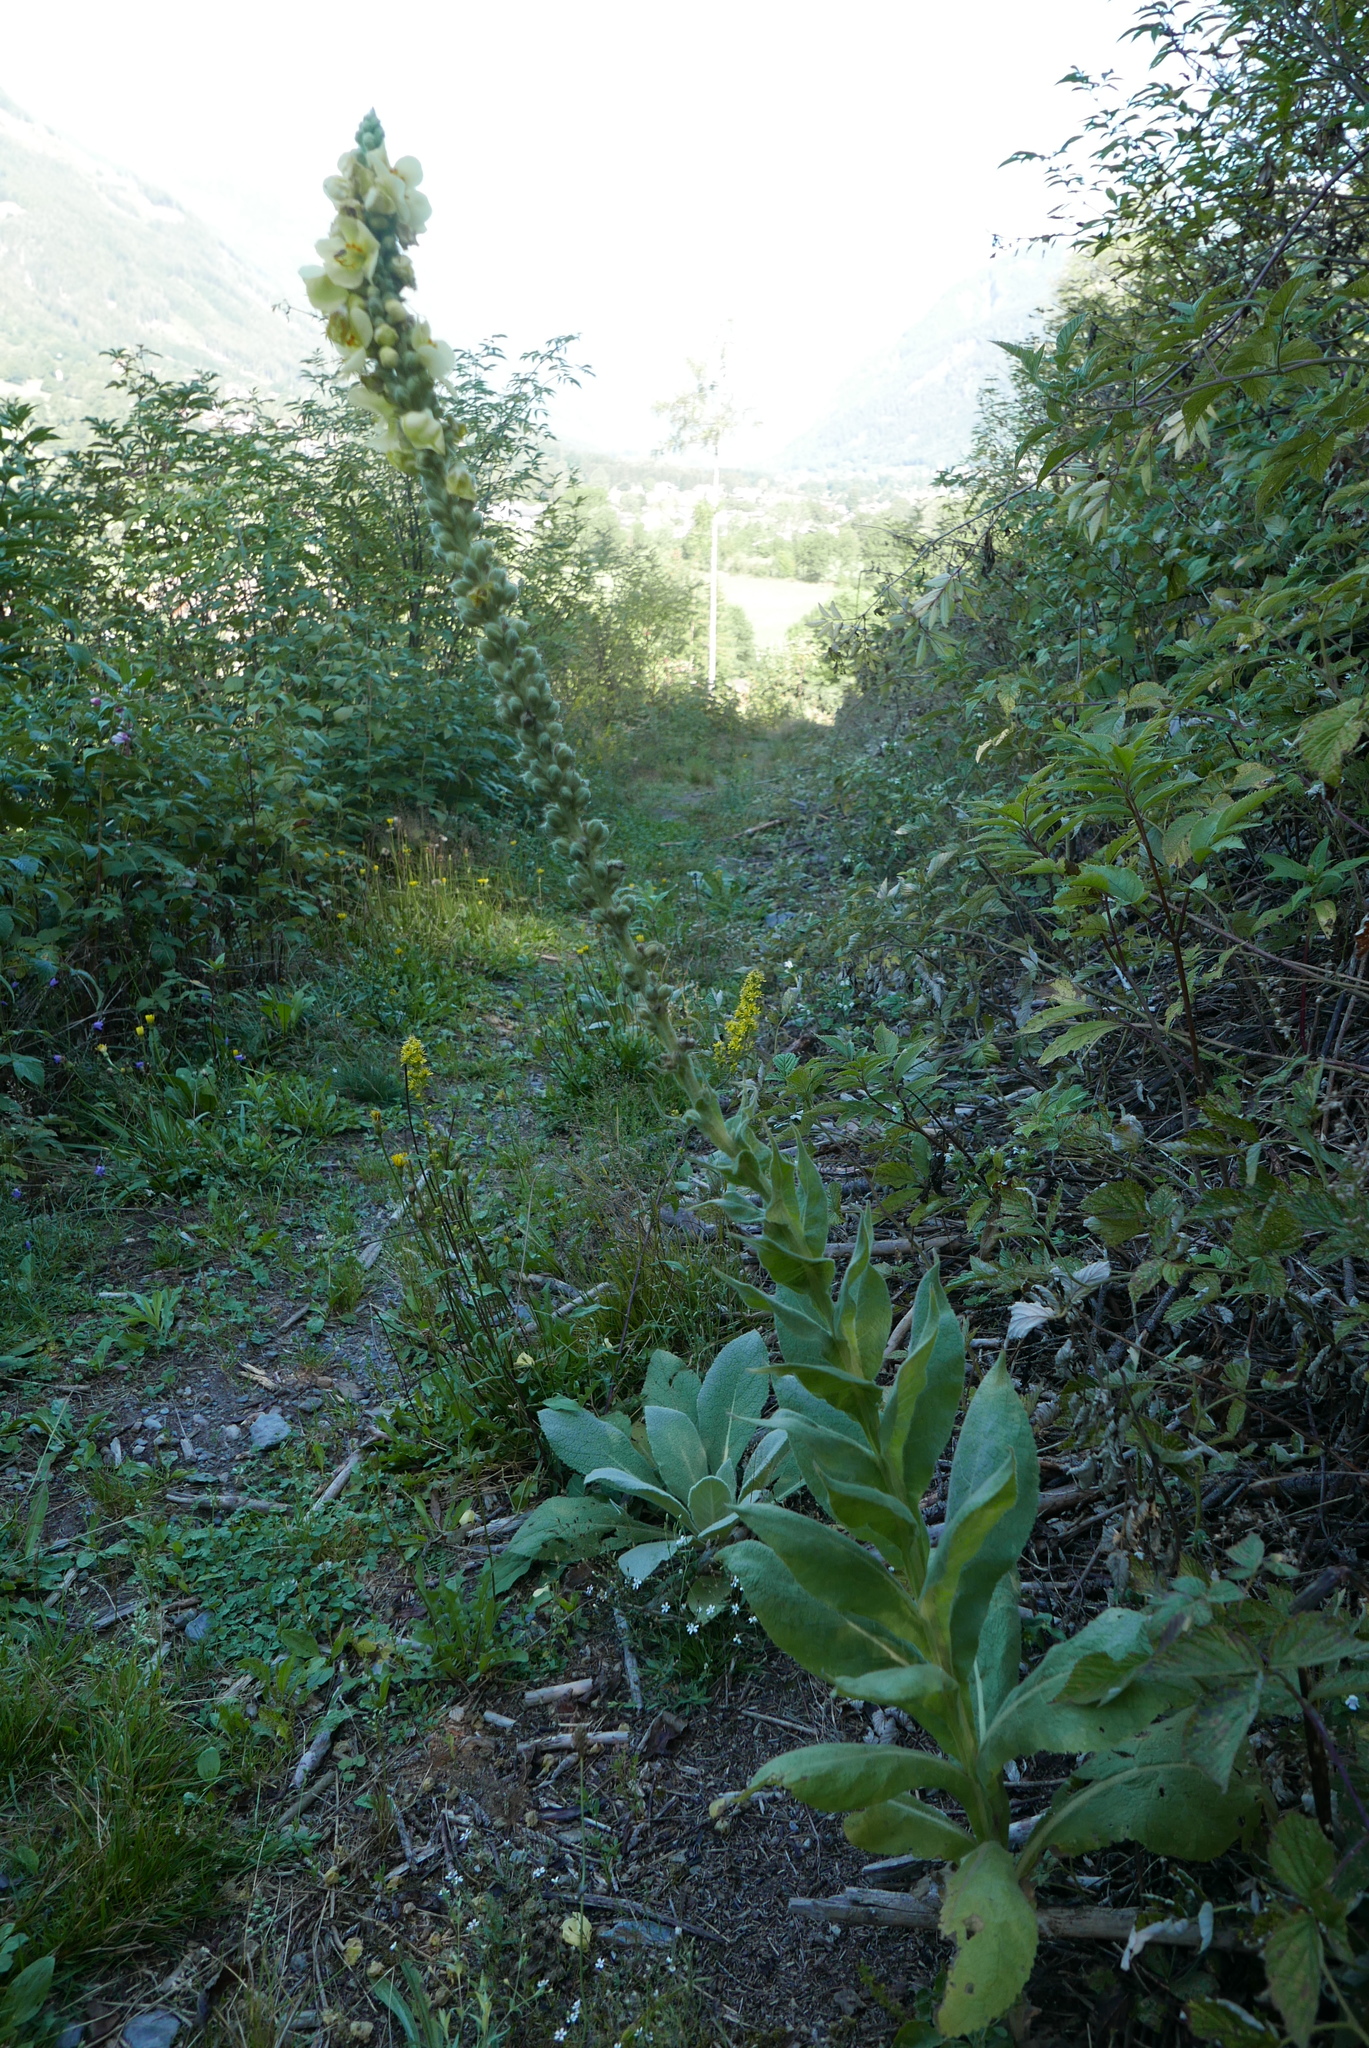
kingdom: Plantae
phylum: Tracheophyta
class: Magnoliopsida
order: Lamiales
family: Scrophulariaceae
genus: Verbascum
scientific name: Verbascum densiflorum
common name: Dense-flowered mullein
